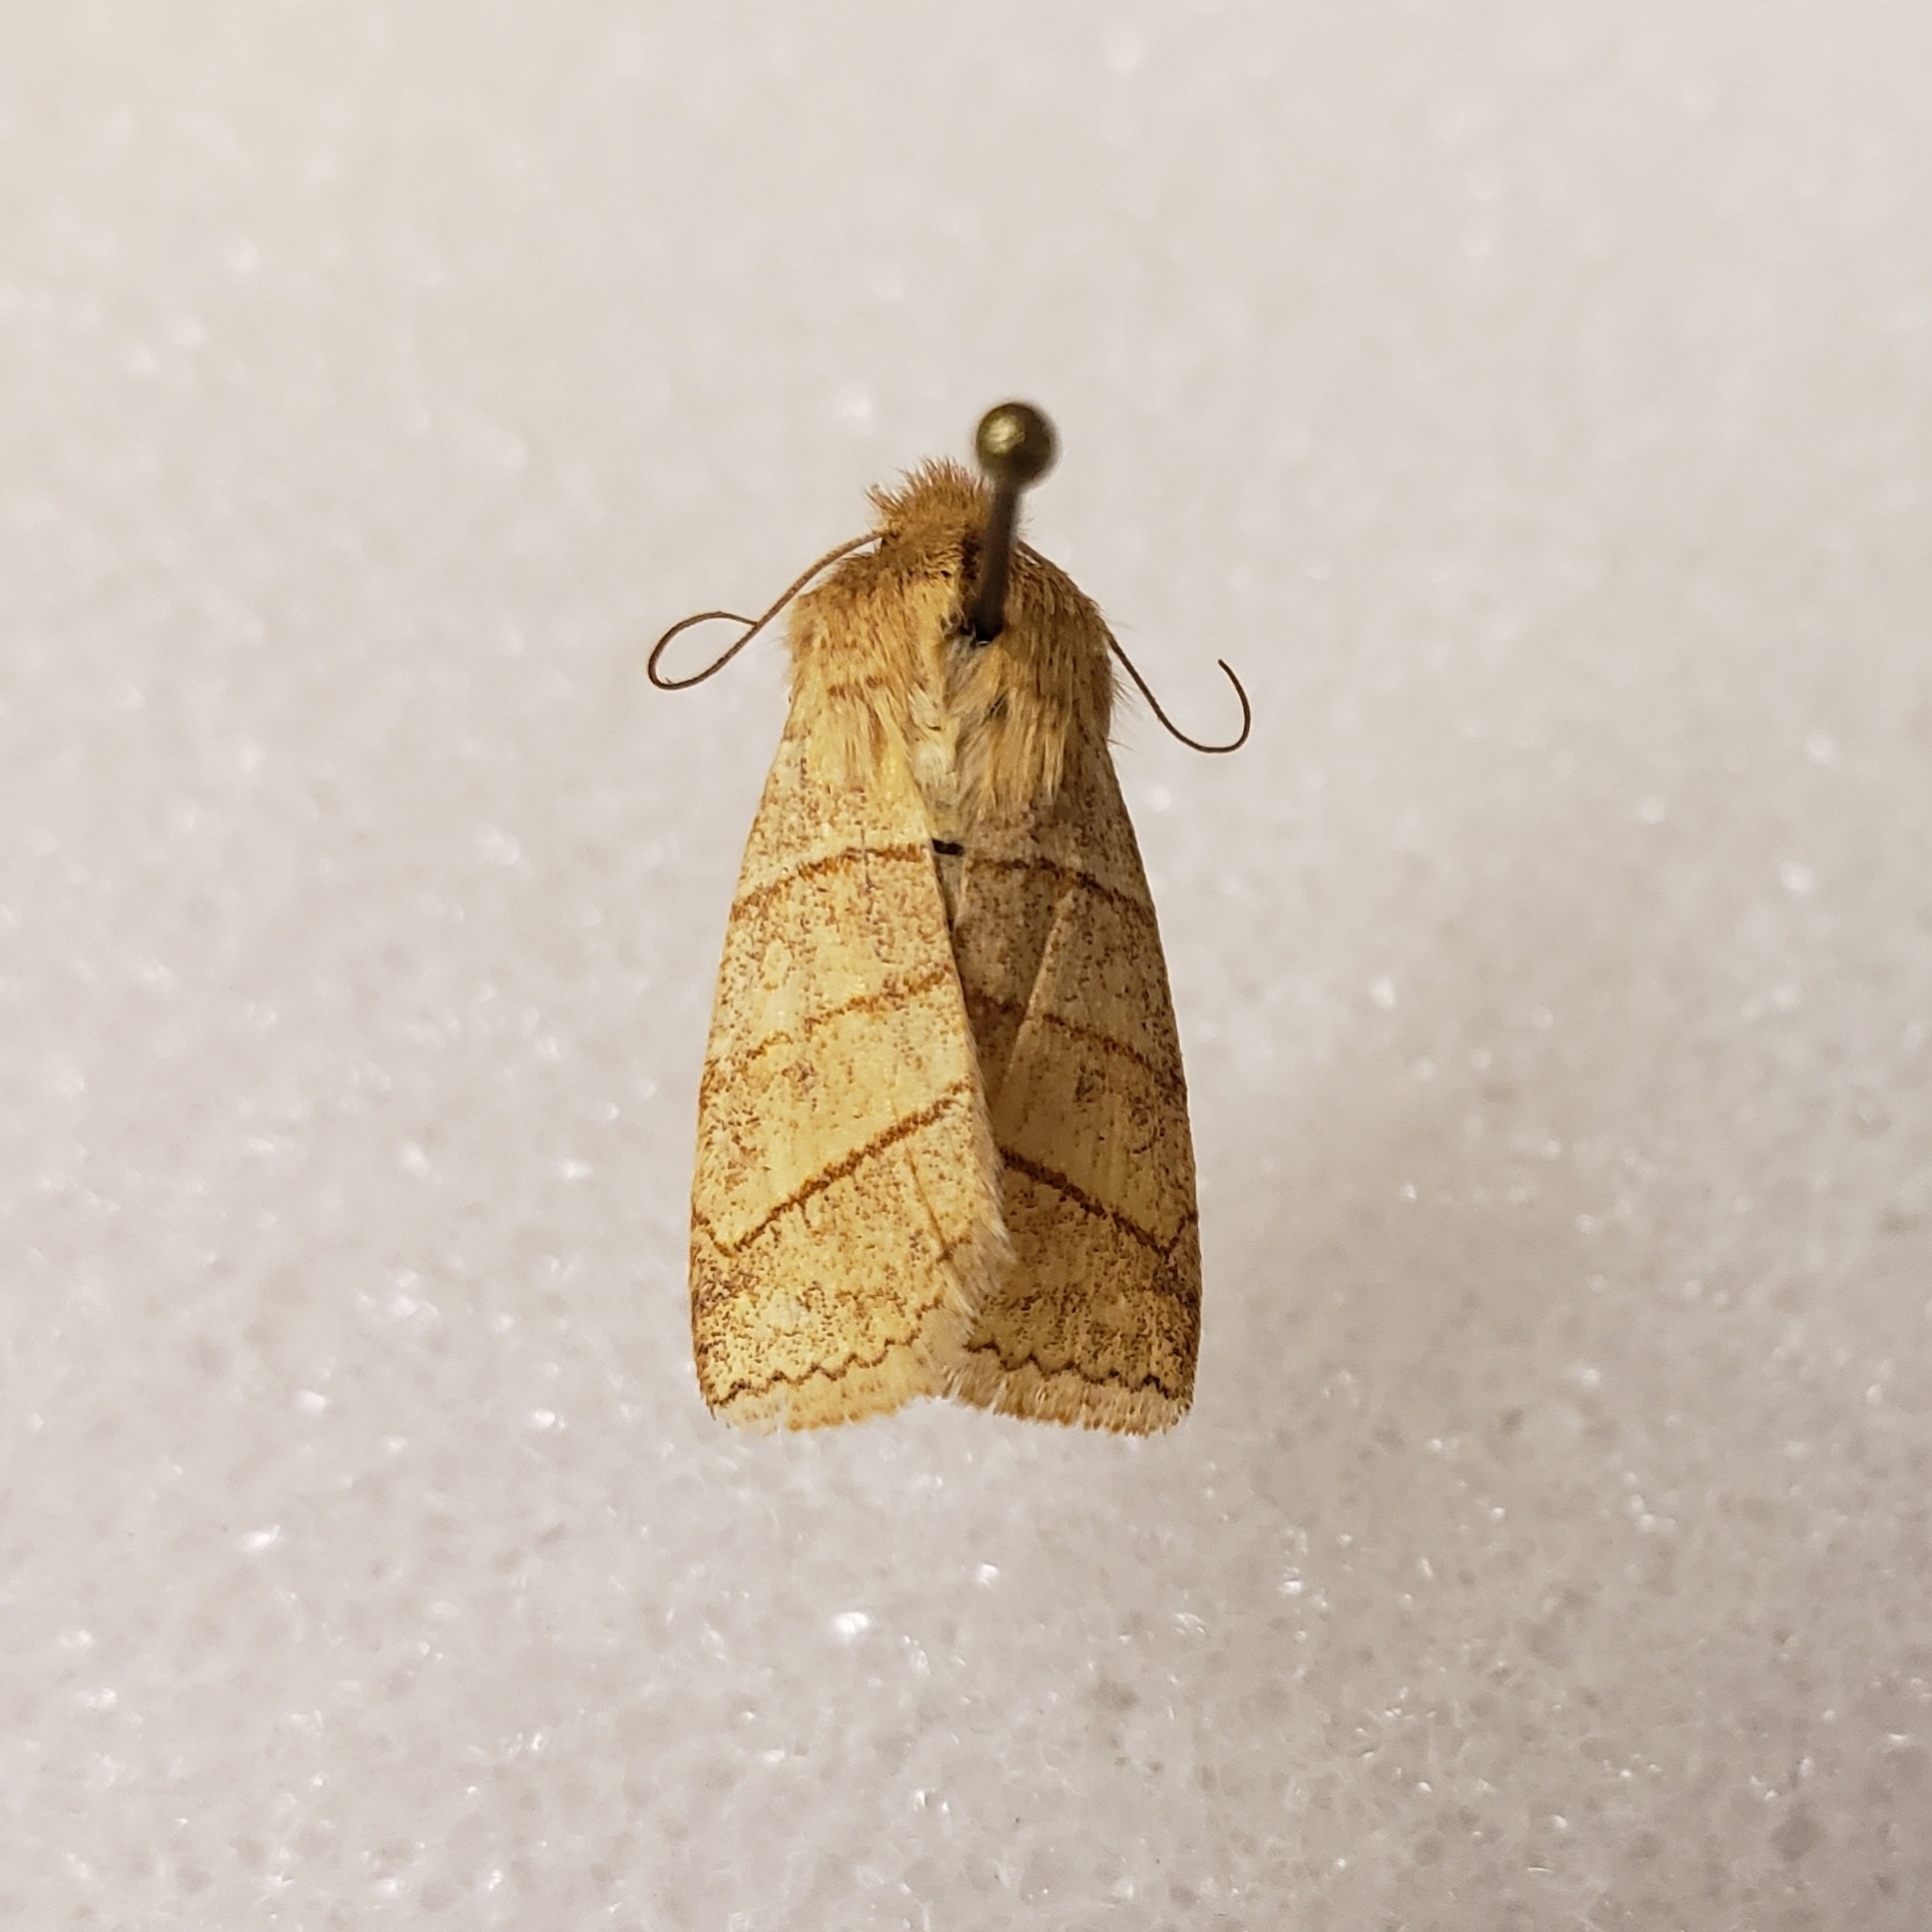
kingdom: Animalia
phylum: Arthropoda
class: Insecta
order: Lepidoptera
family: Noctuidae
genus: Pyreferra
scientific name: Pyreferra citrombra
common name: Citrine sallow
